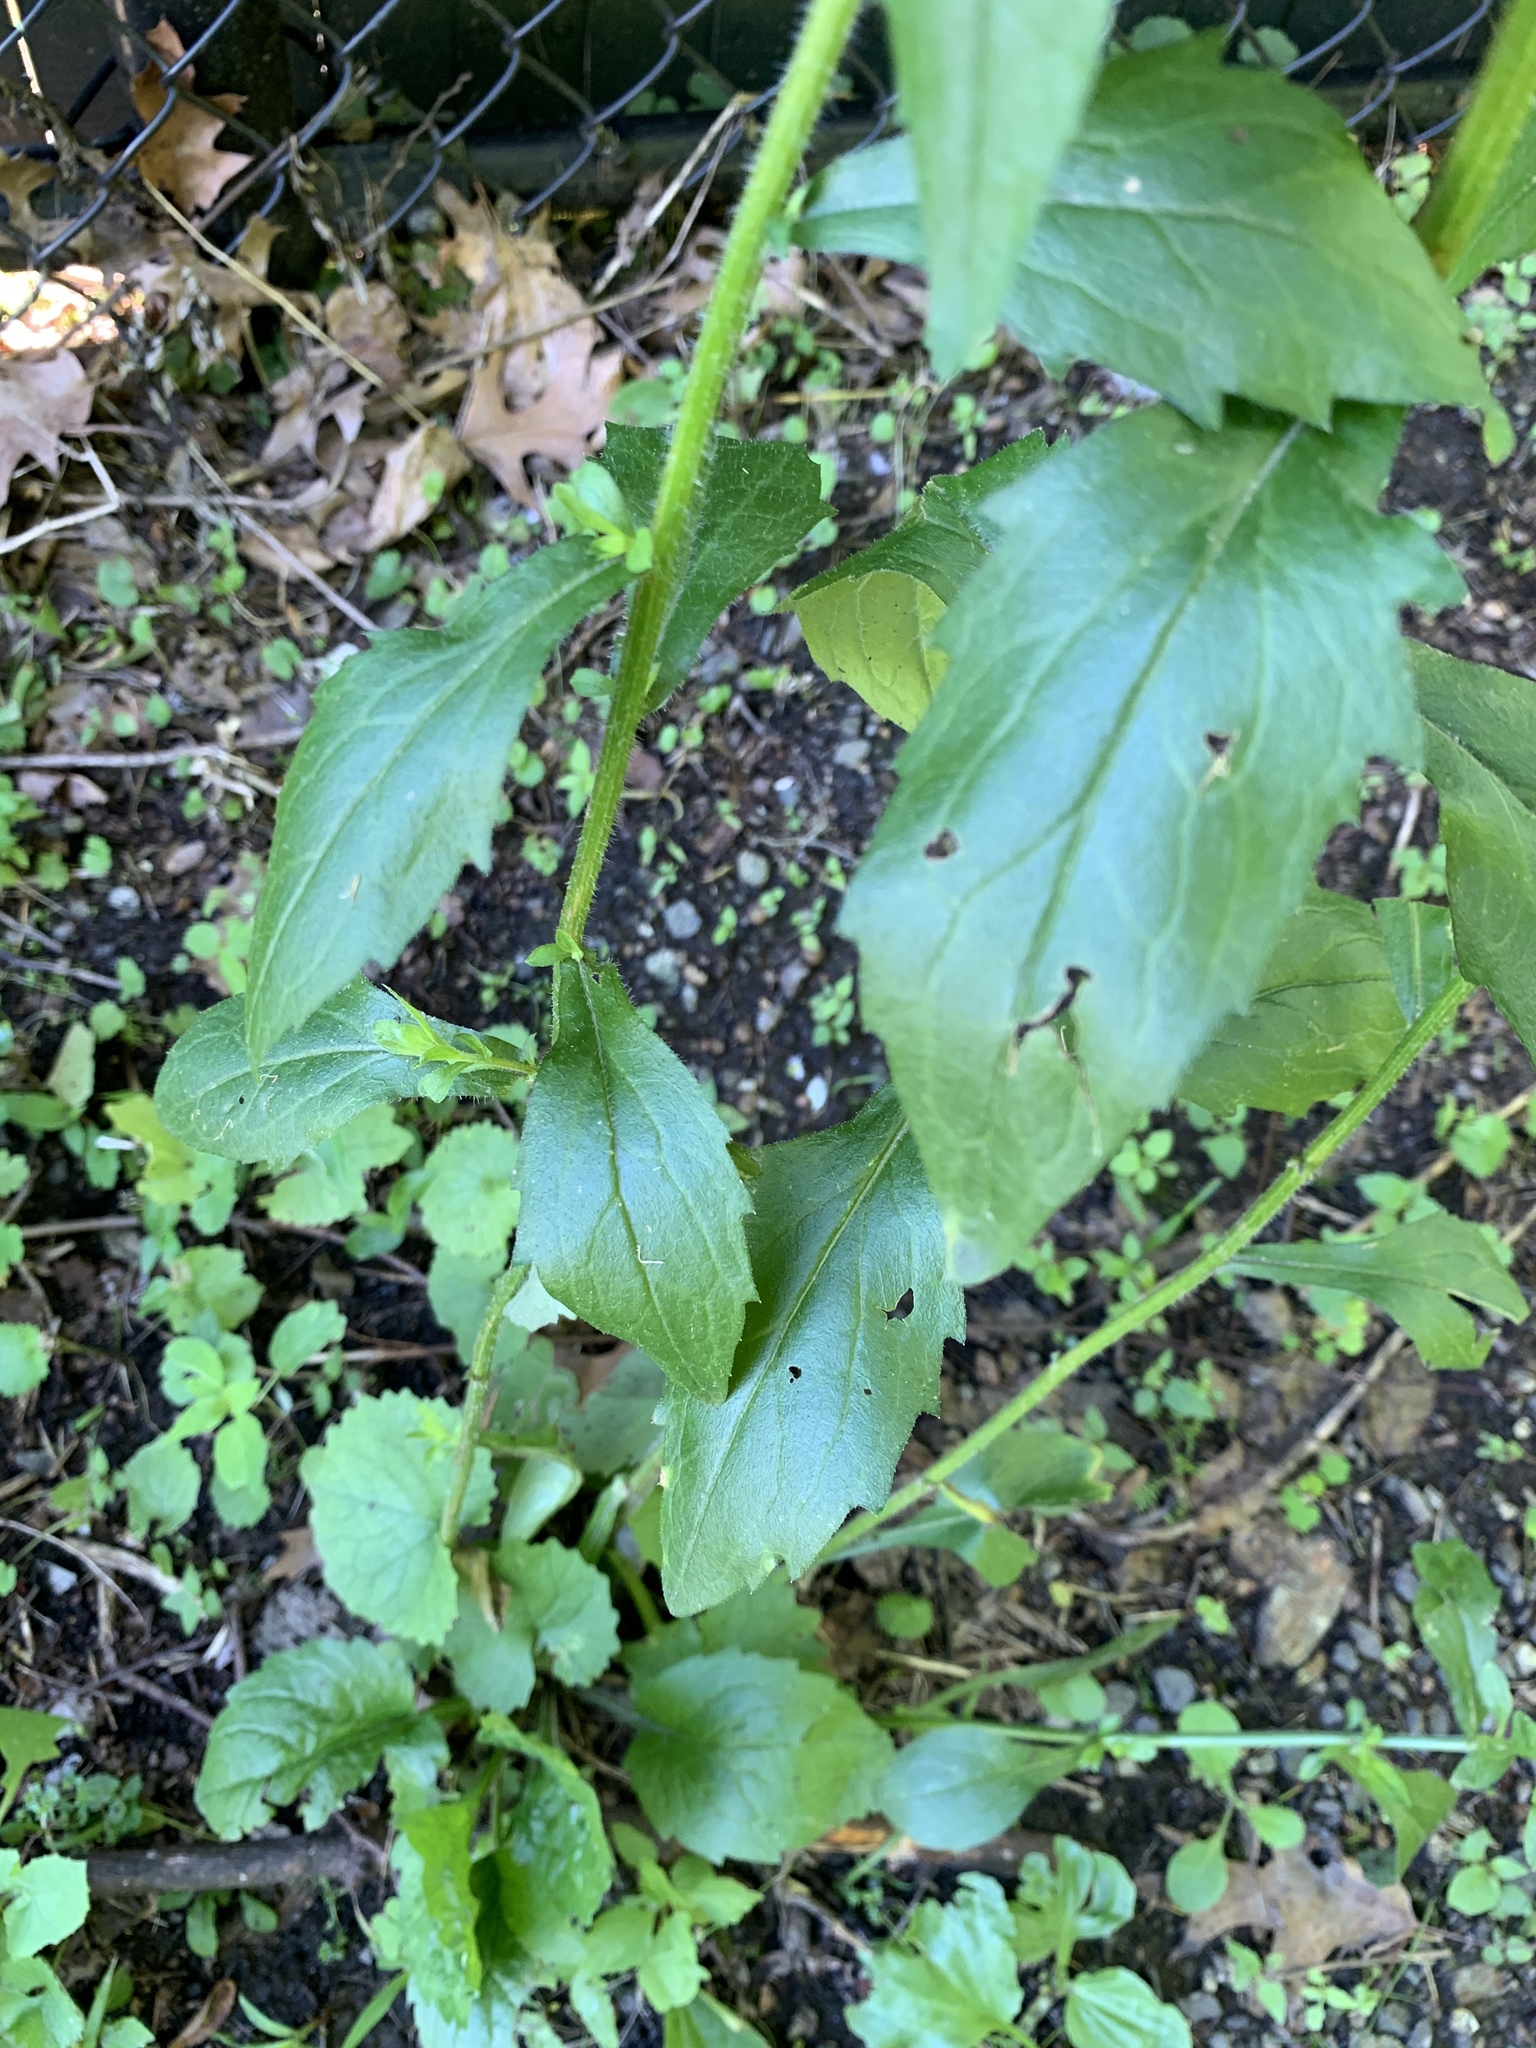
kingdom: Plantae
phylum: Tracheophyta
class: Magnoliopsida
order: Asterales
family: Asteraceae
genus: Erigeron
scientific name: Erigeron annuus
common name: Tall fleabane
